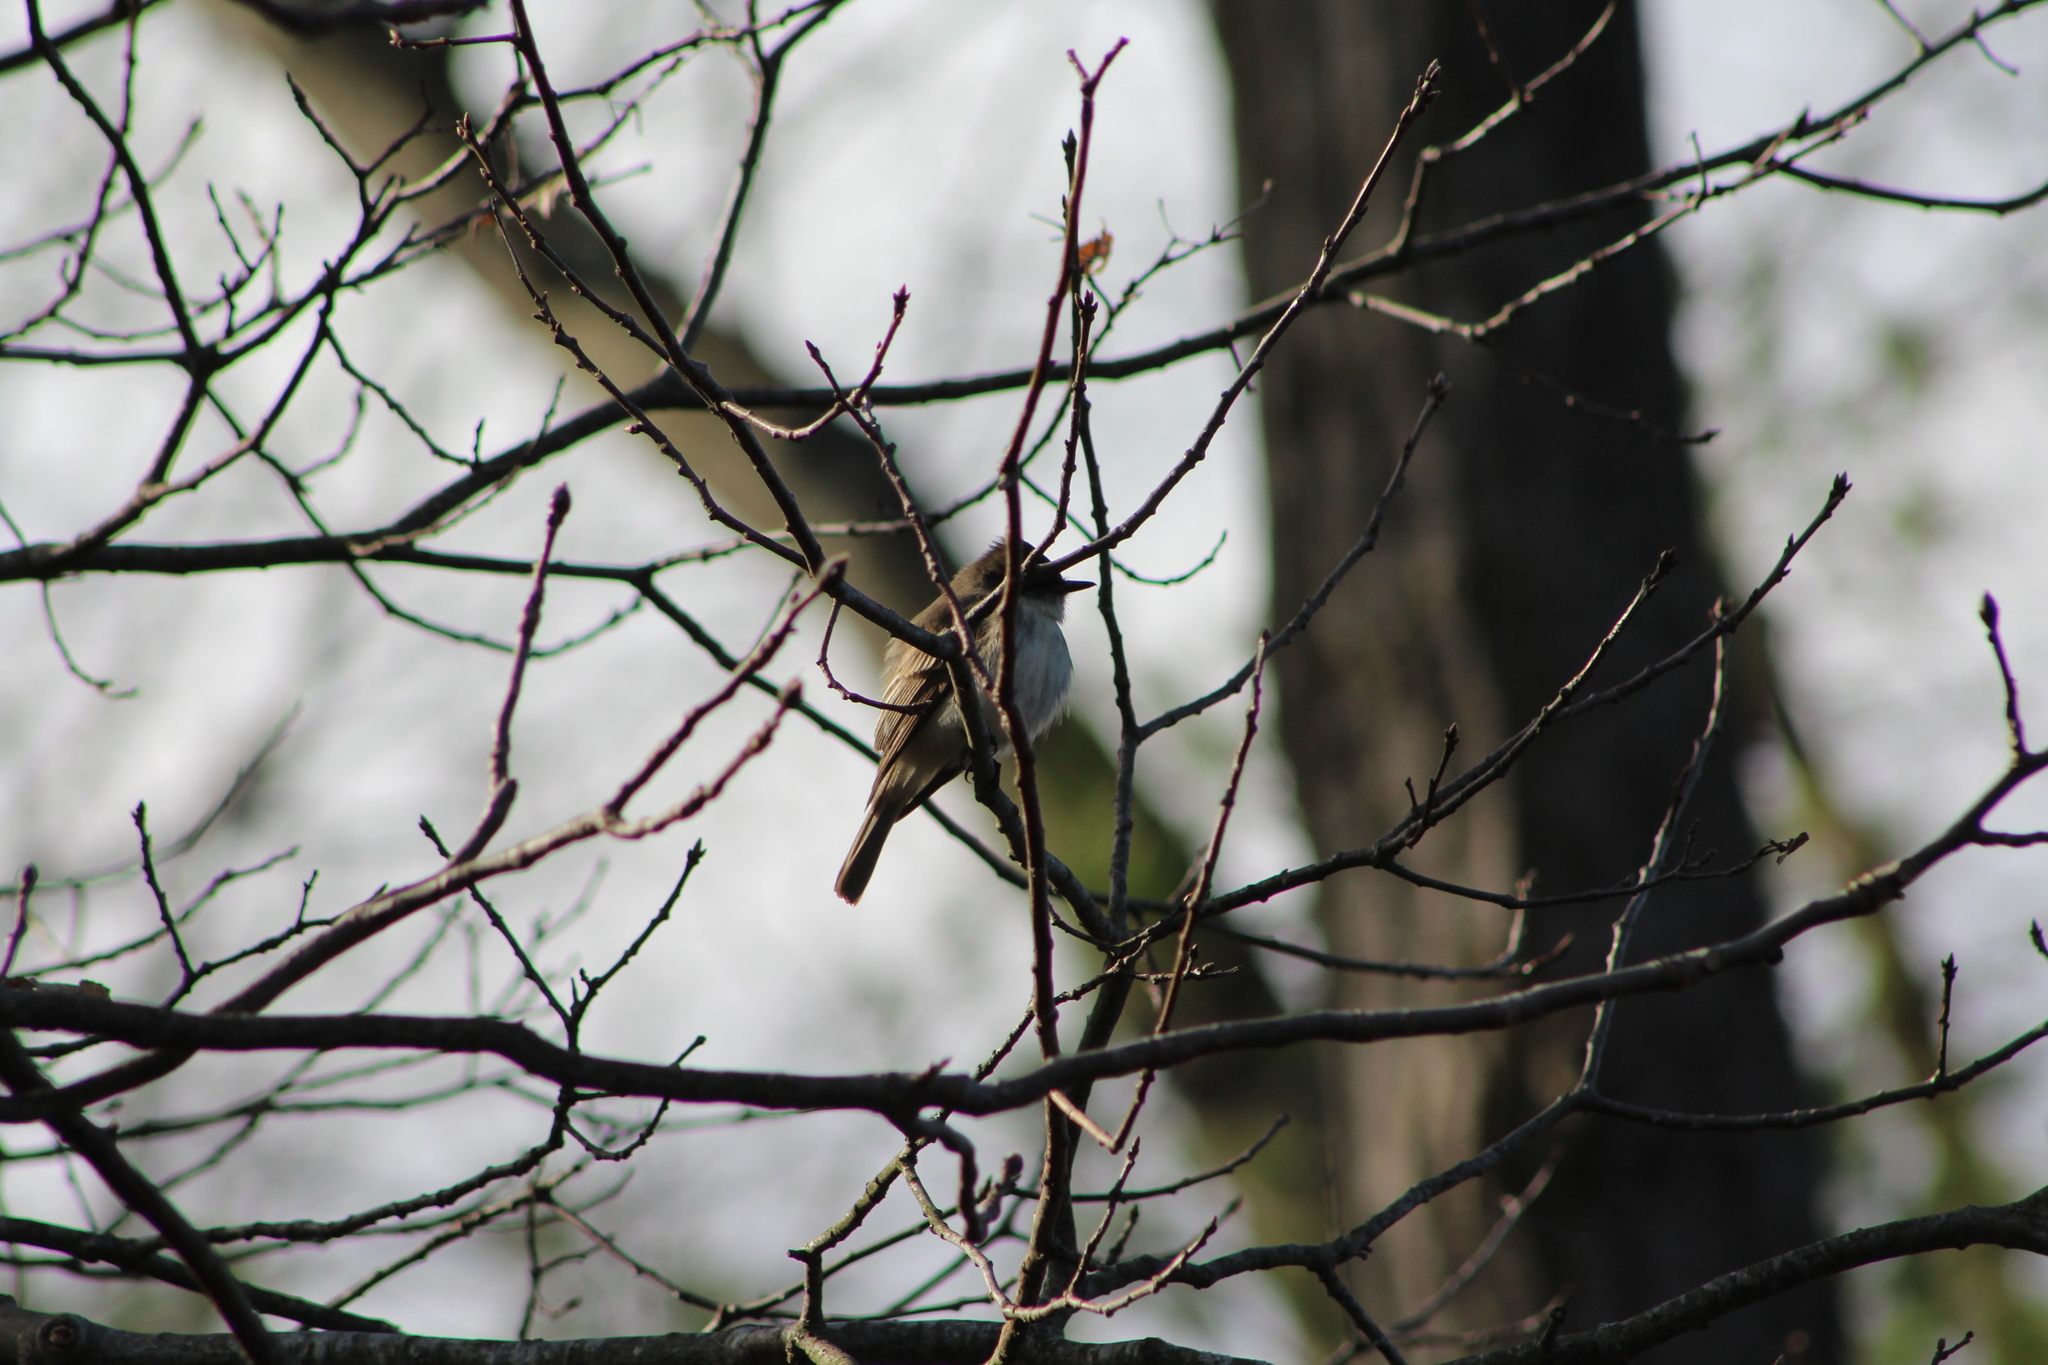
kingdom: Animalia
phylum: Chordata
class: Aves
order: Passeriformes
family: Tyrannidae
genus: Sayornis
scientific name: Sayornis phoebe
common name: Eastern phoebe
